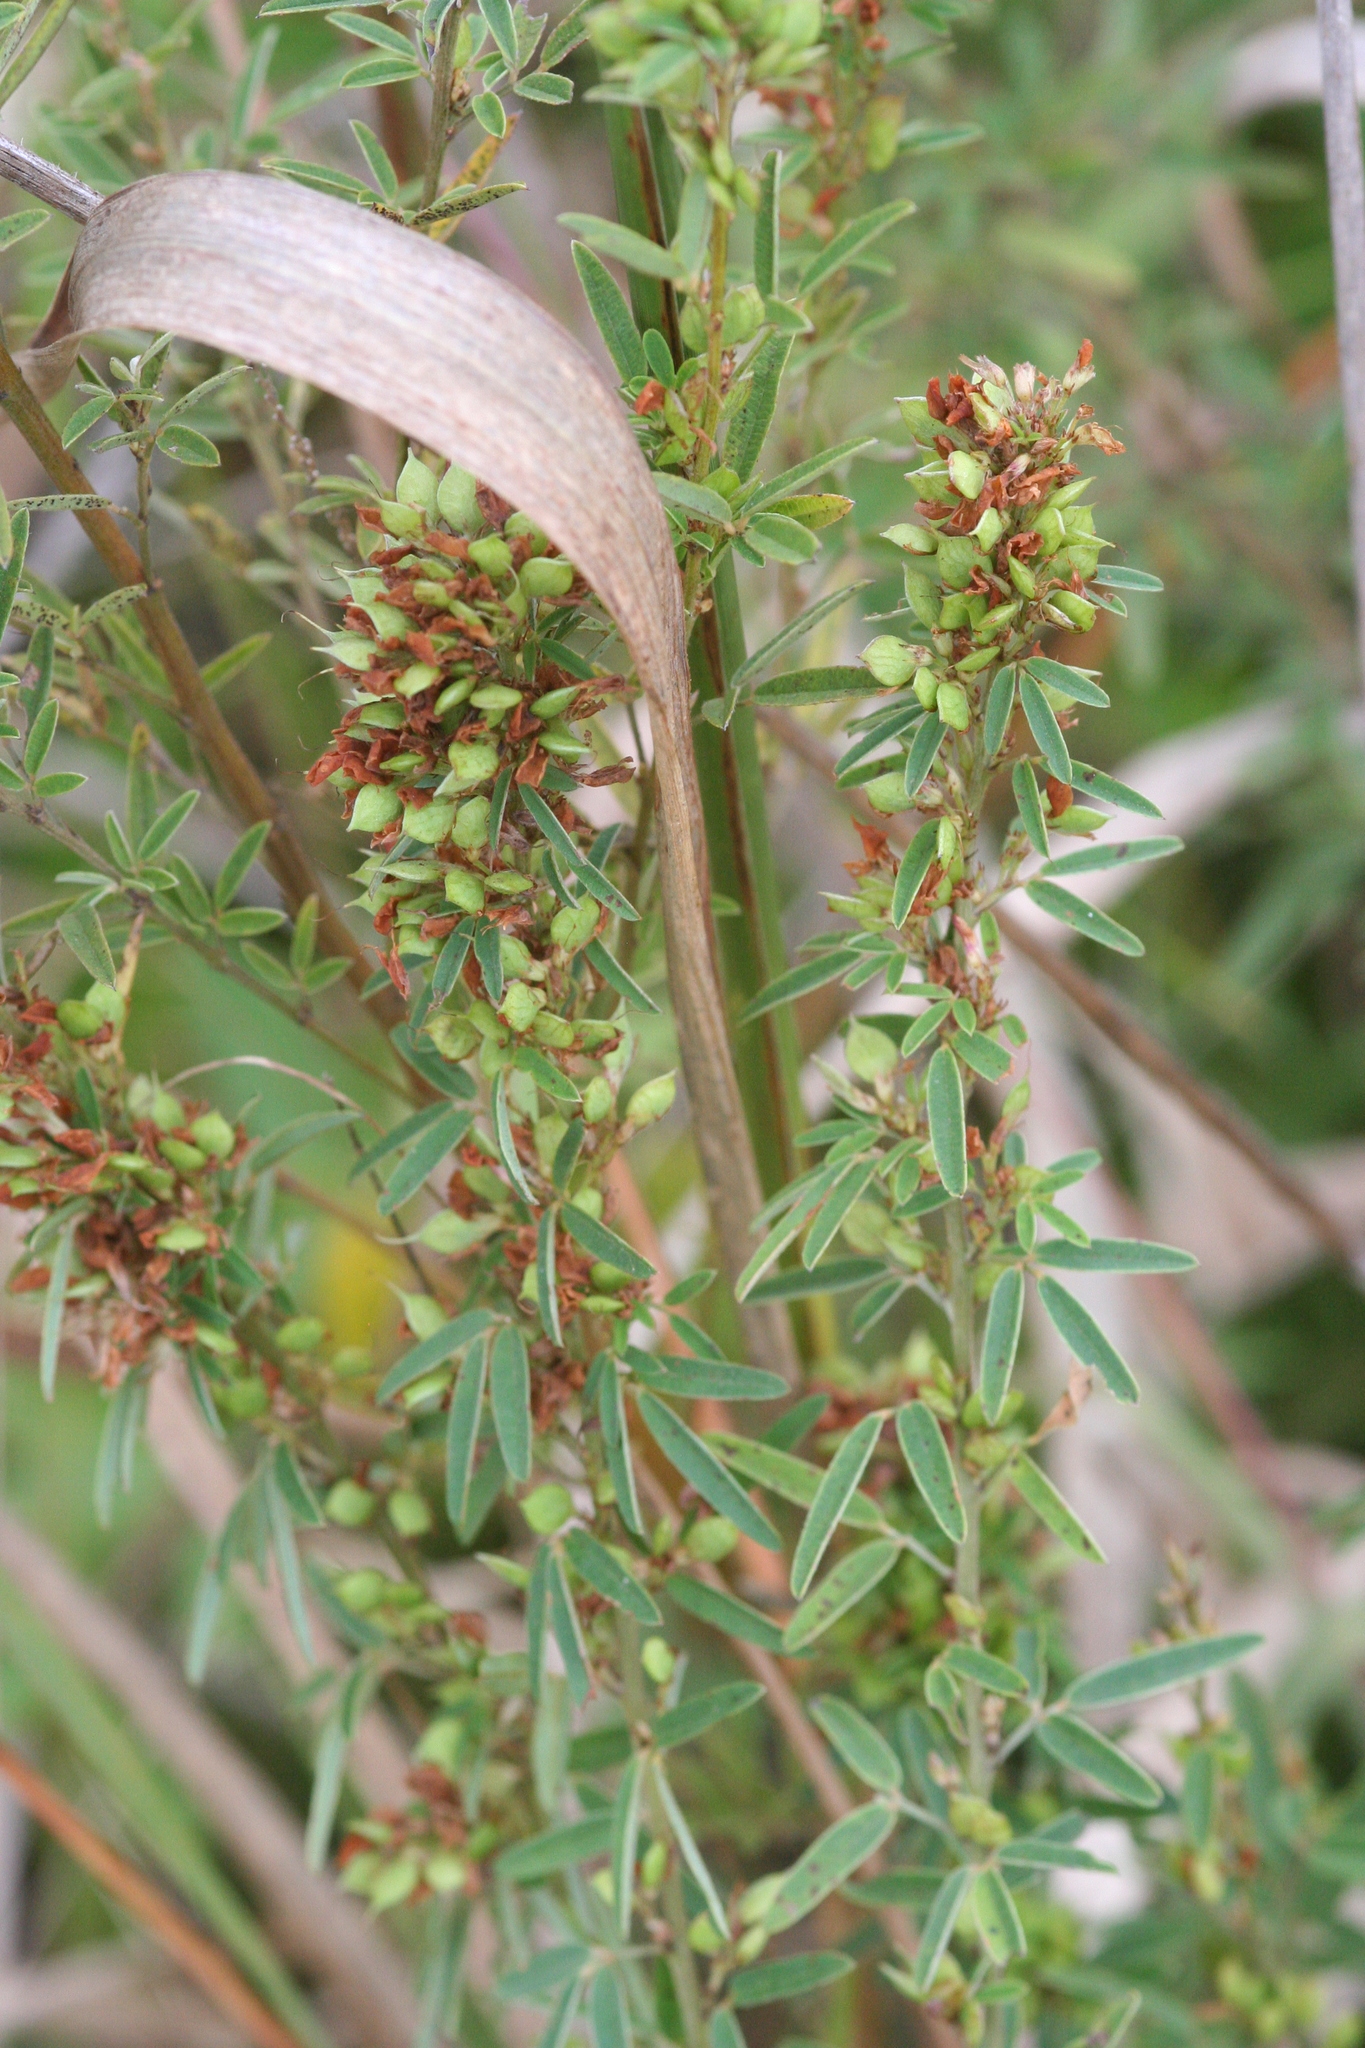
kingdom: Plantae
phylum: Tracheophyta
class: Magnoliopsida
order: Fabales
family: Fabaceae
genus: Lespedeza
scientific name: Lespedeza virginica
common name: Slender bush-clover
